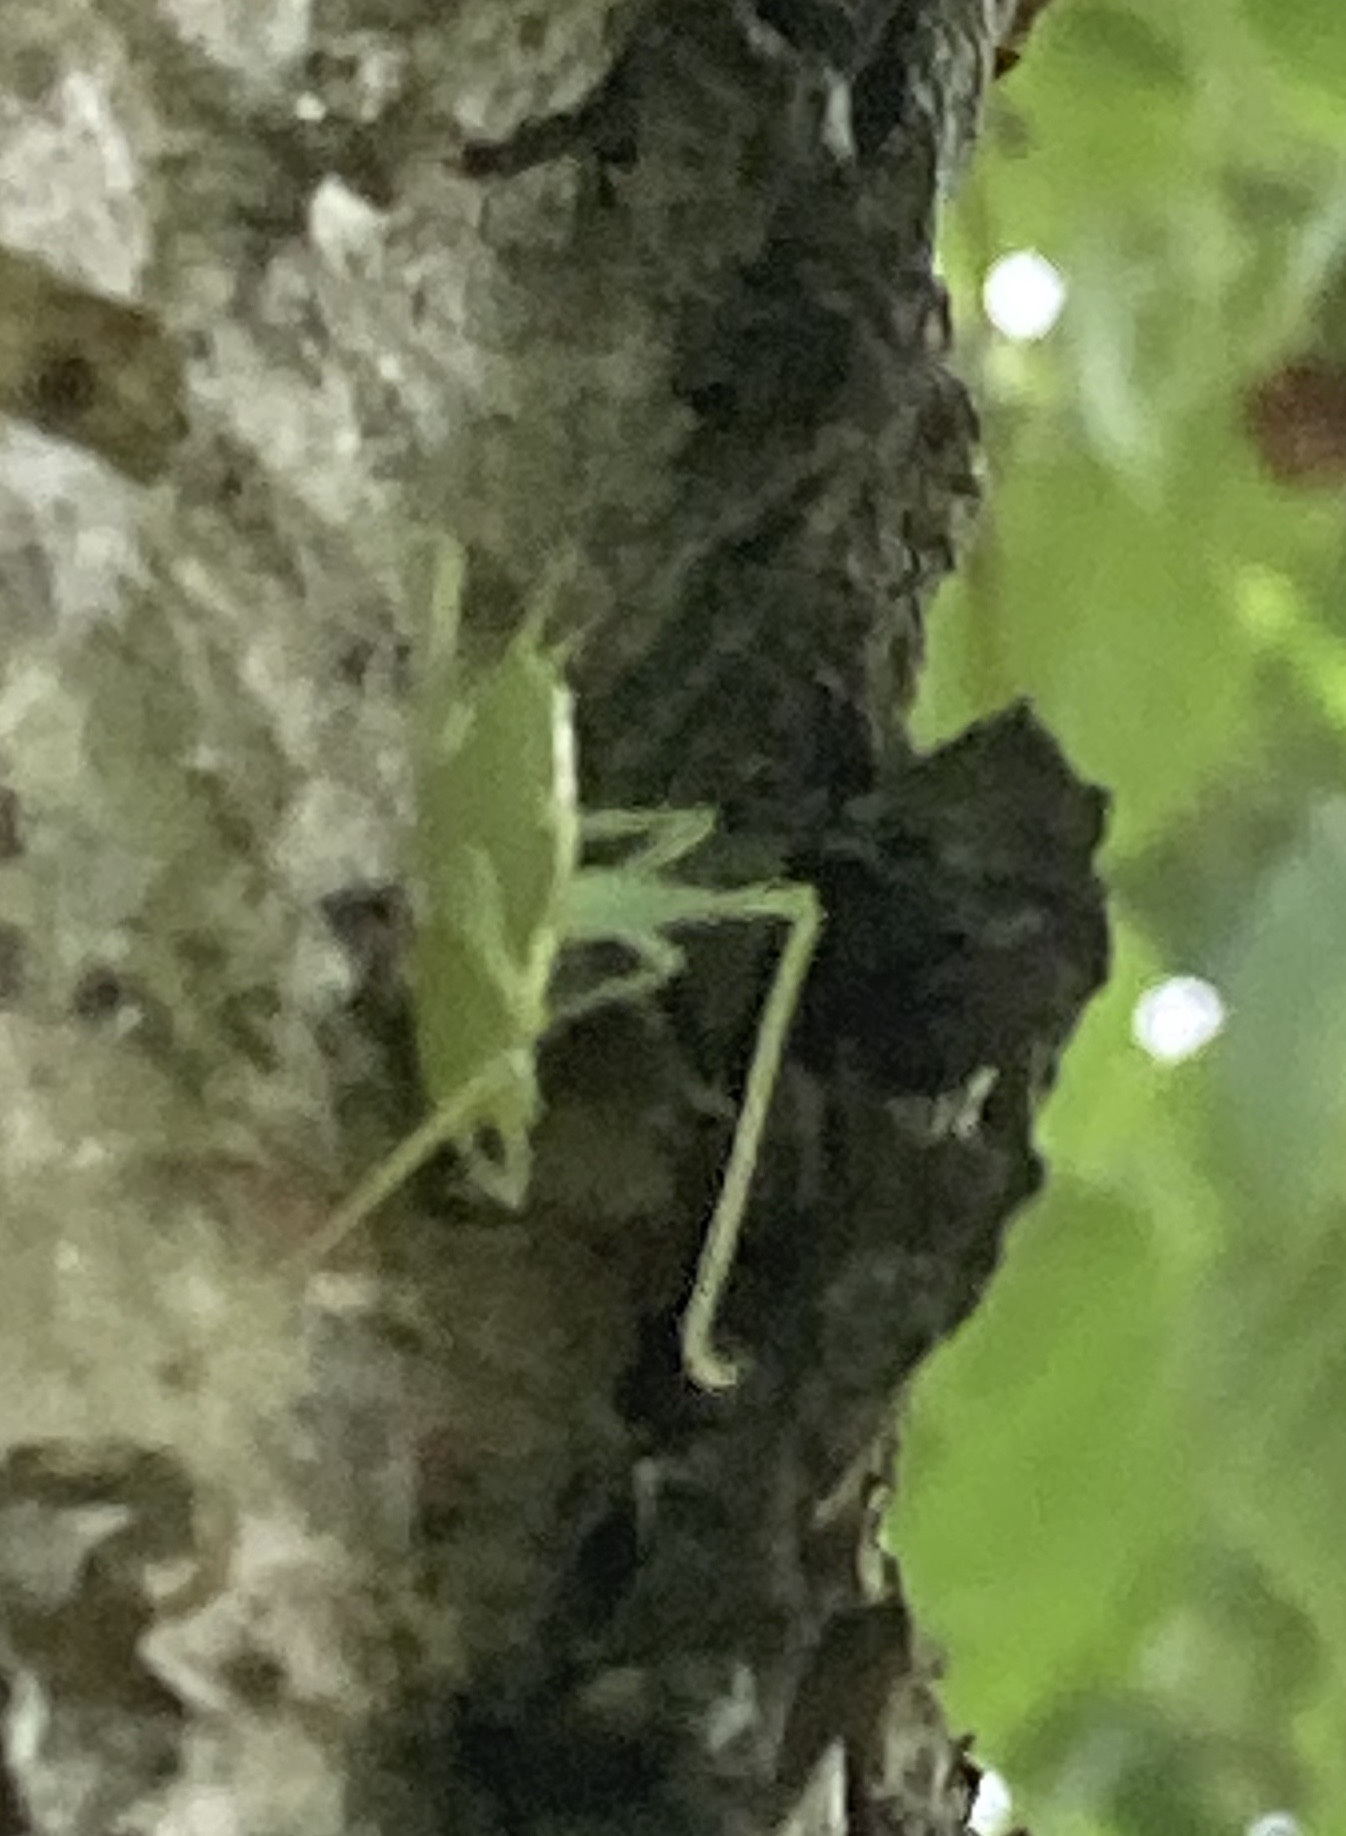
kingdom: Animalia
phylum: Arthropoda
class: Insecta
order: Orthoptera
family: Tettigoniidae
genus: Meconema
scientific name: Meconema thalassinum
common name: Oak bush-cricket
